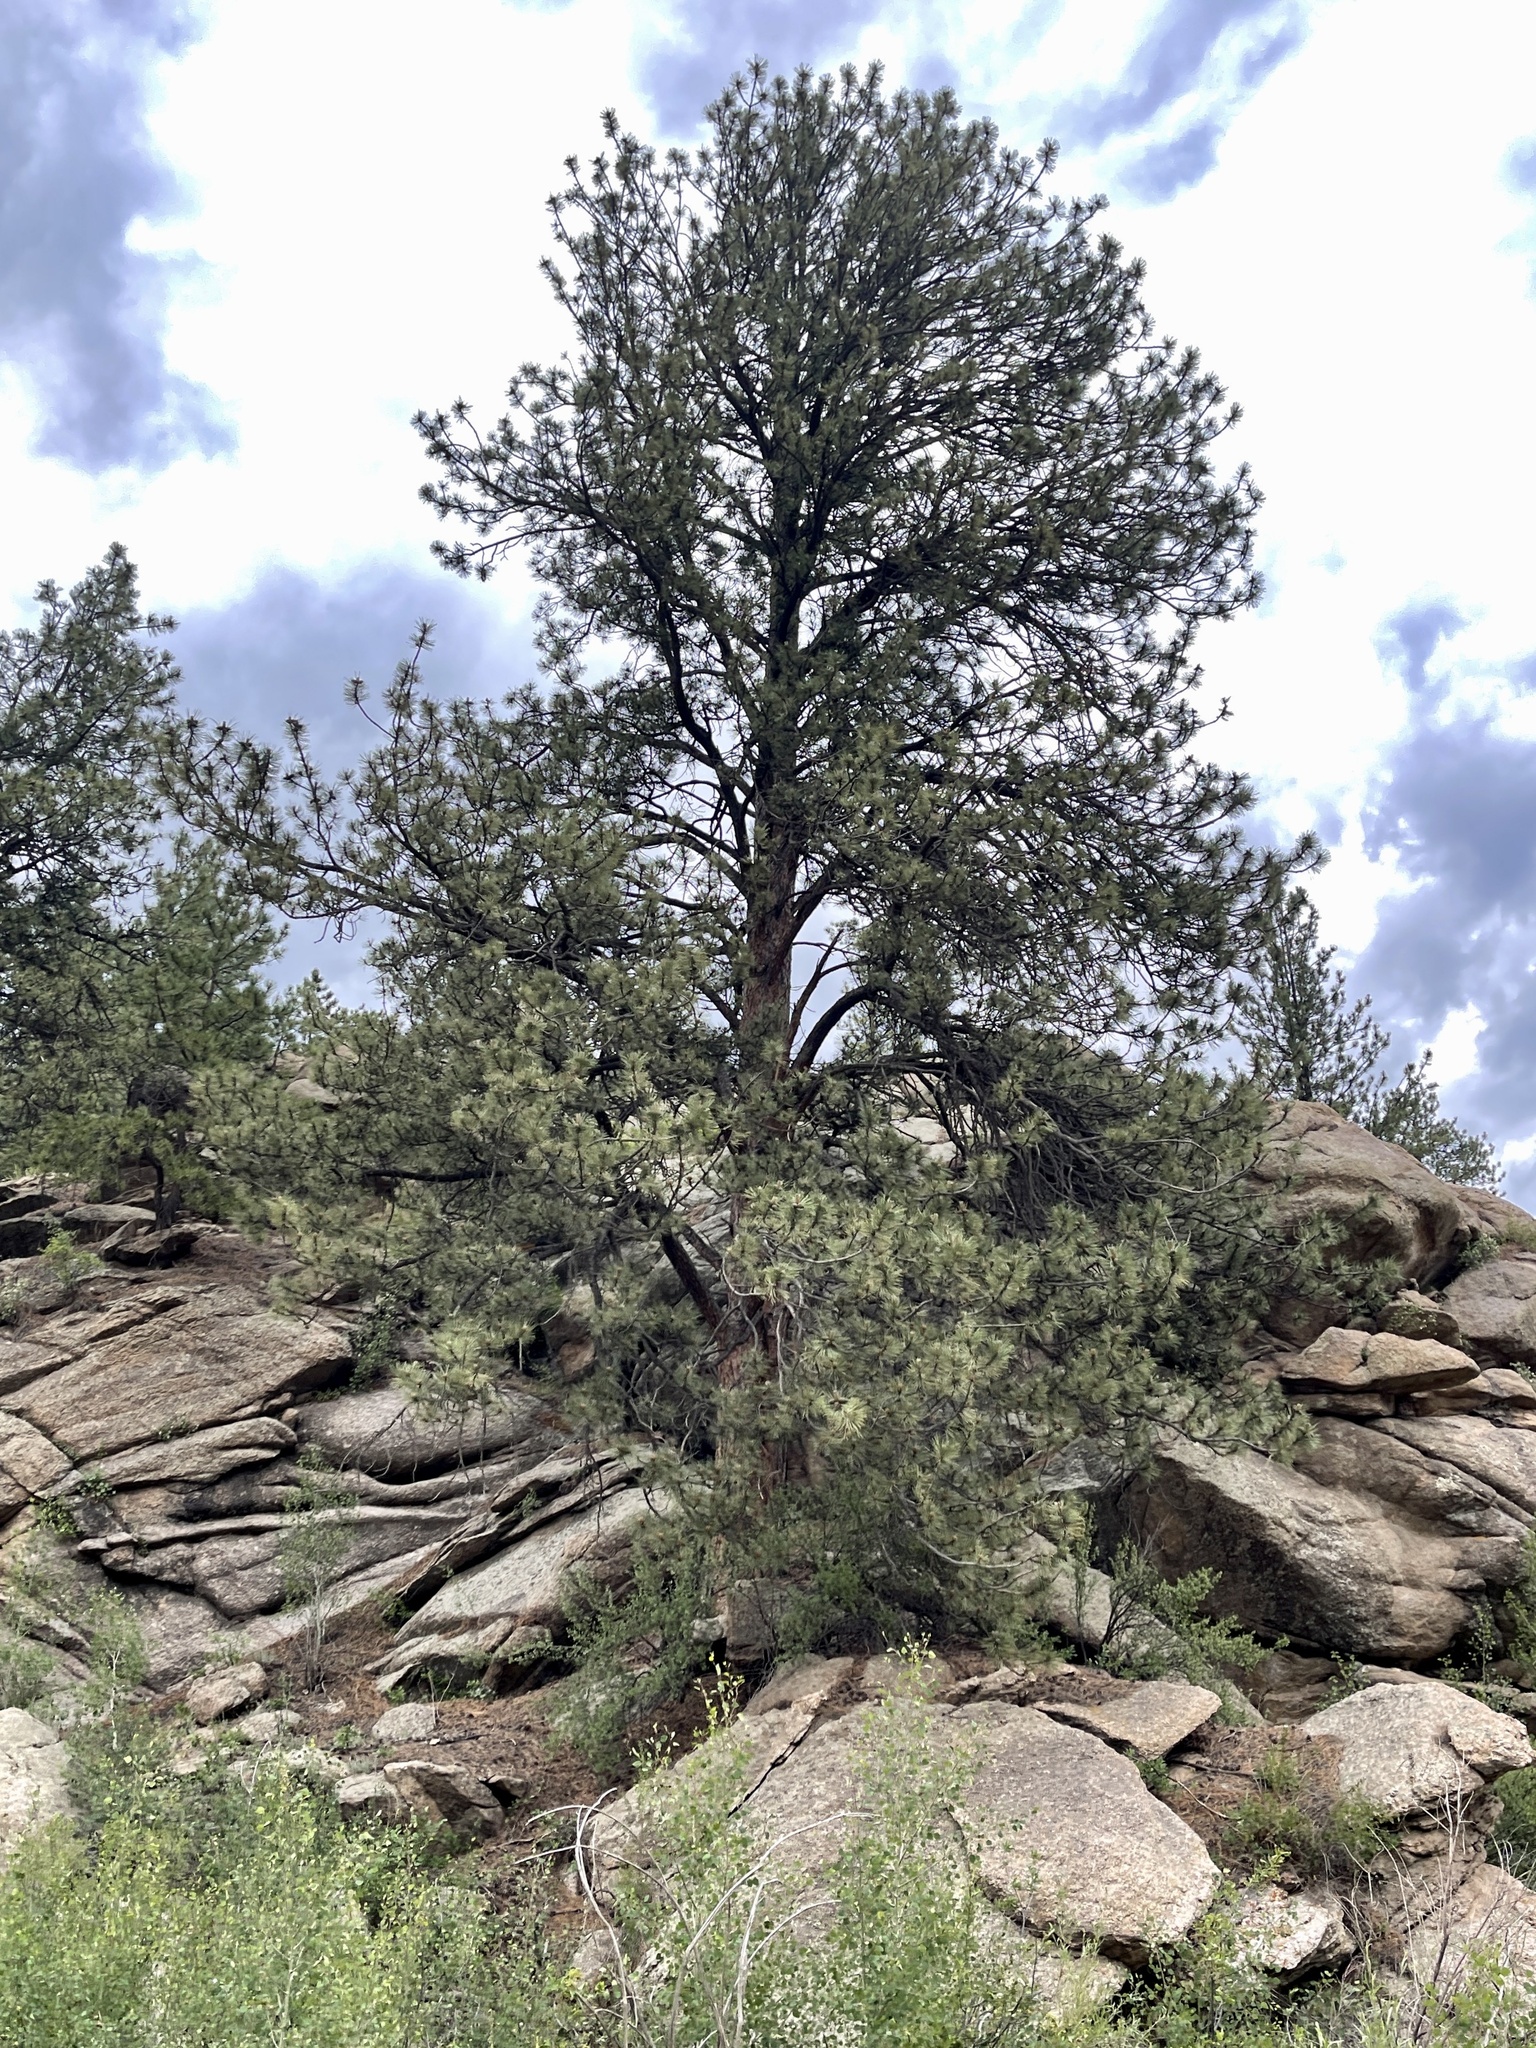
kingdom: Plantae
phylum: Tracheophyta
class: Pinopsida
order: Pinales
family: Pinaceae
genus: Pinus
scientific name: Pinus ponderosa
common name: Western yellow-pine
